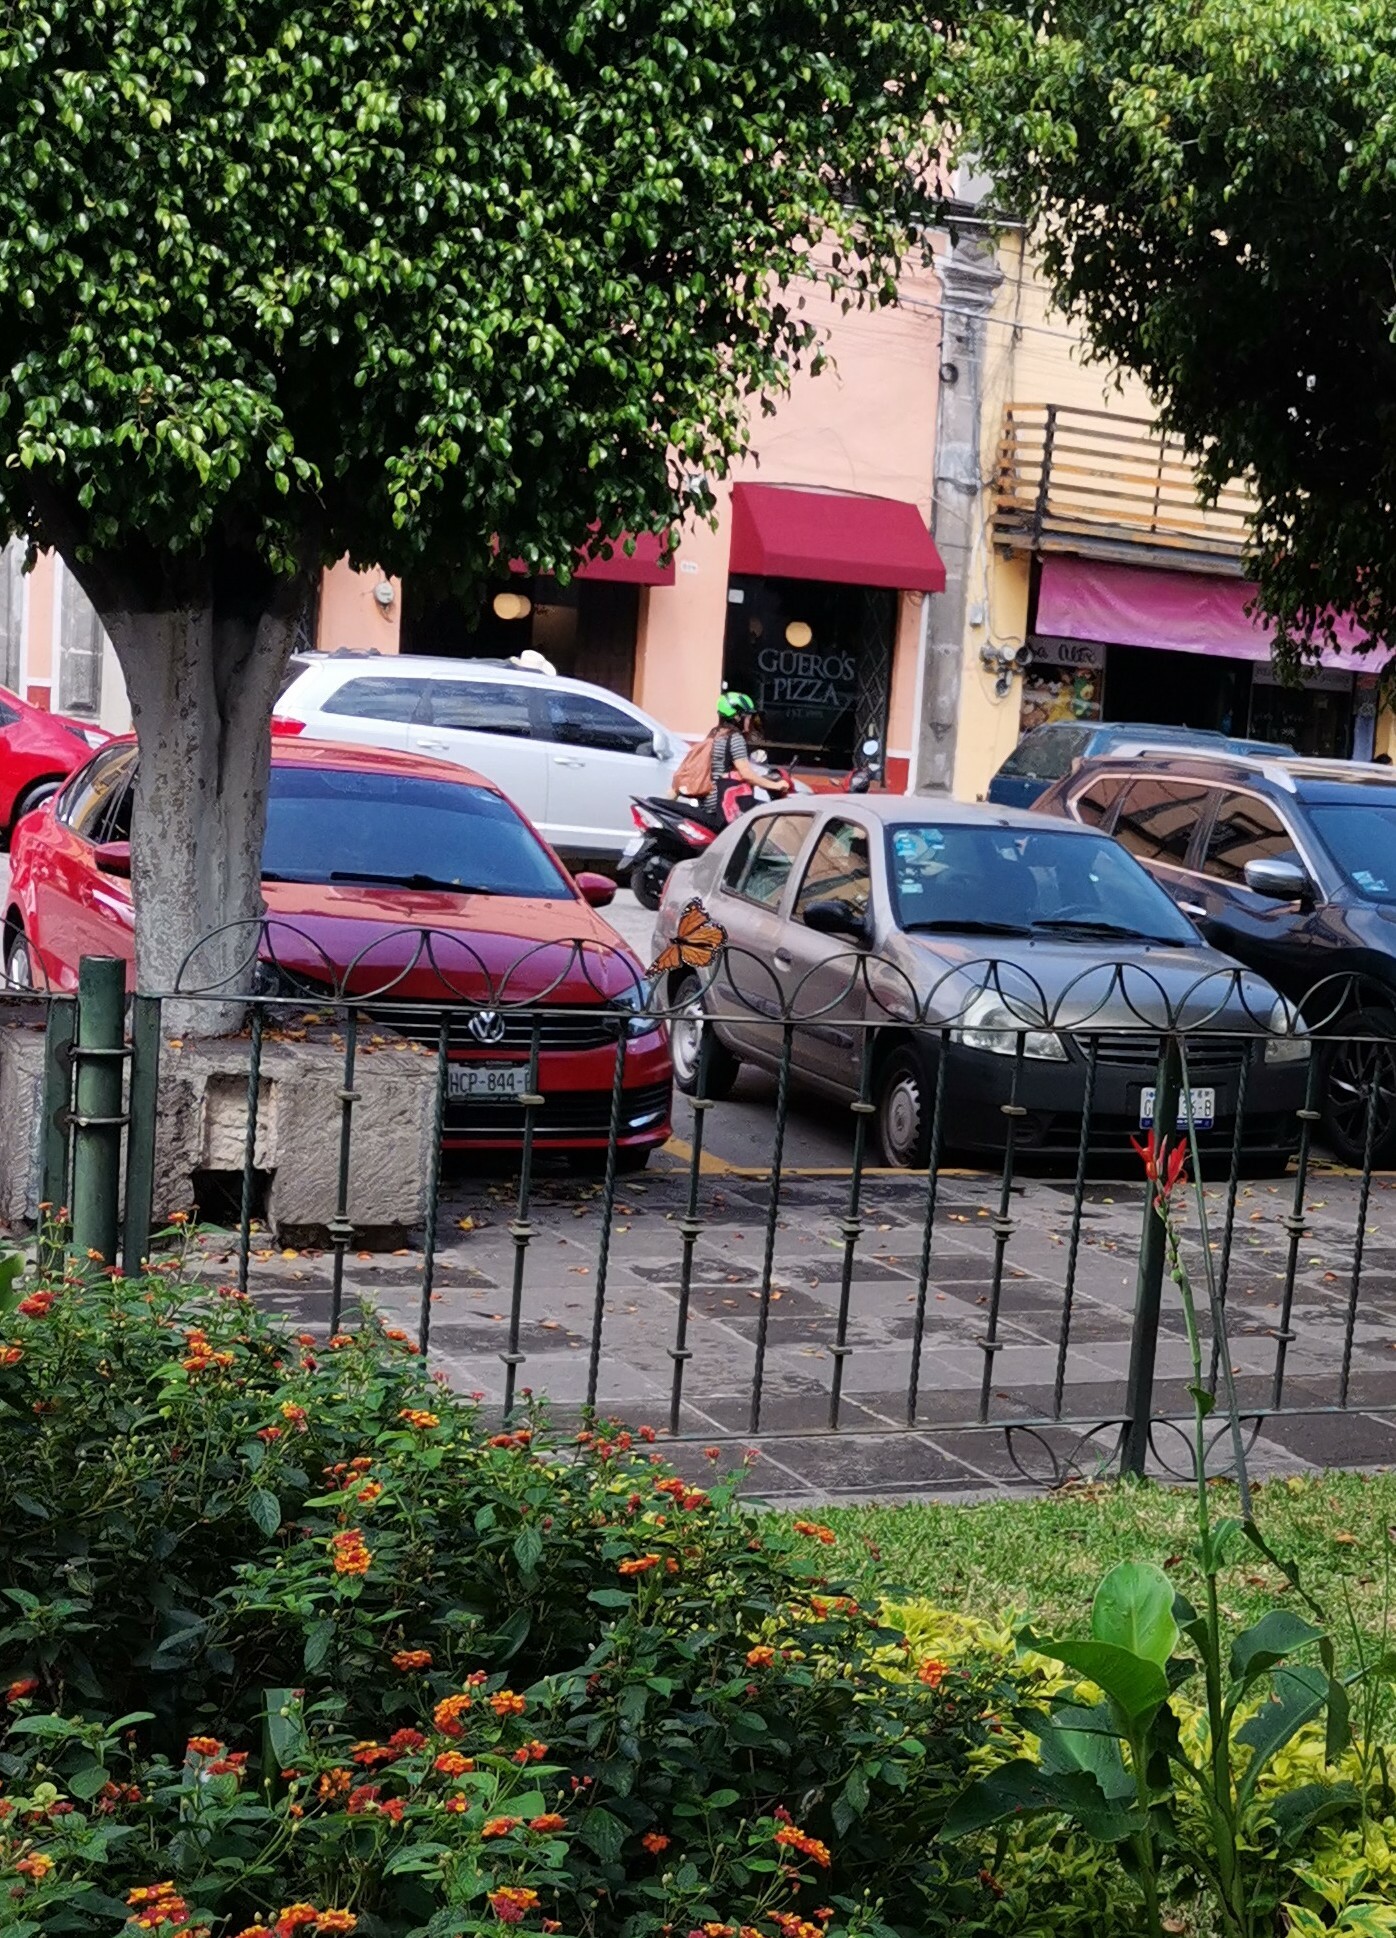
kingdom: Animalia
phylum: Arthropoda
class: Insecta
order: Lepidoptera
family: Nymphalidae
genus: Danaus
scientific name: Danaus plexippus
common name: Monarch
